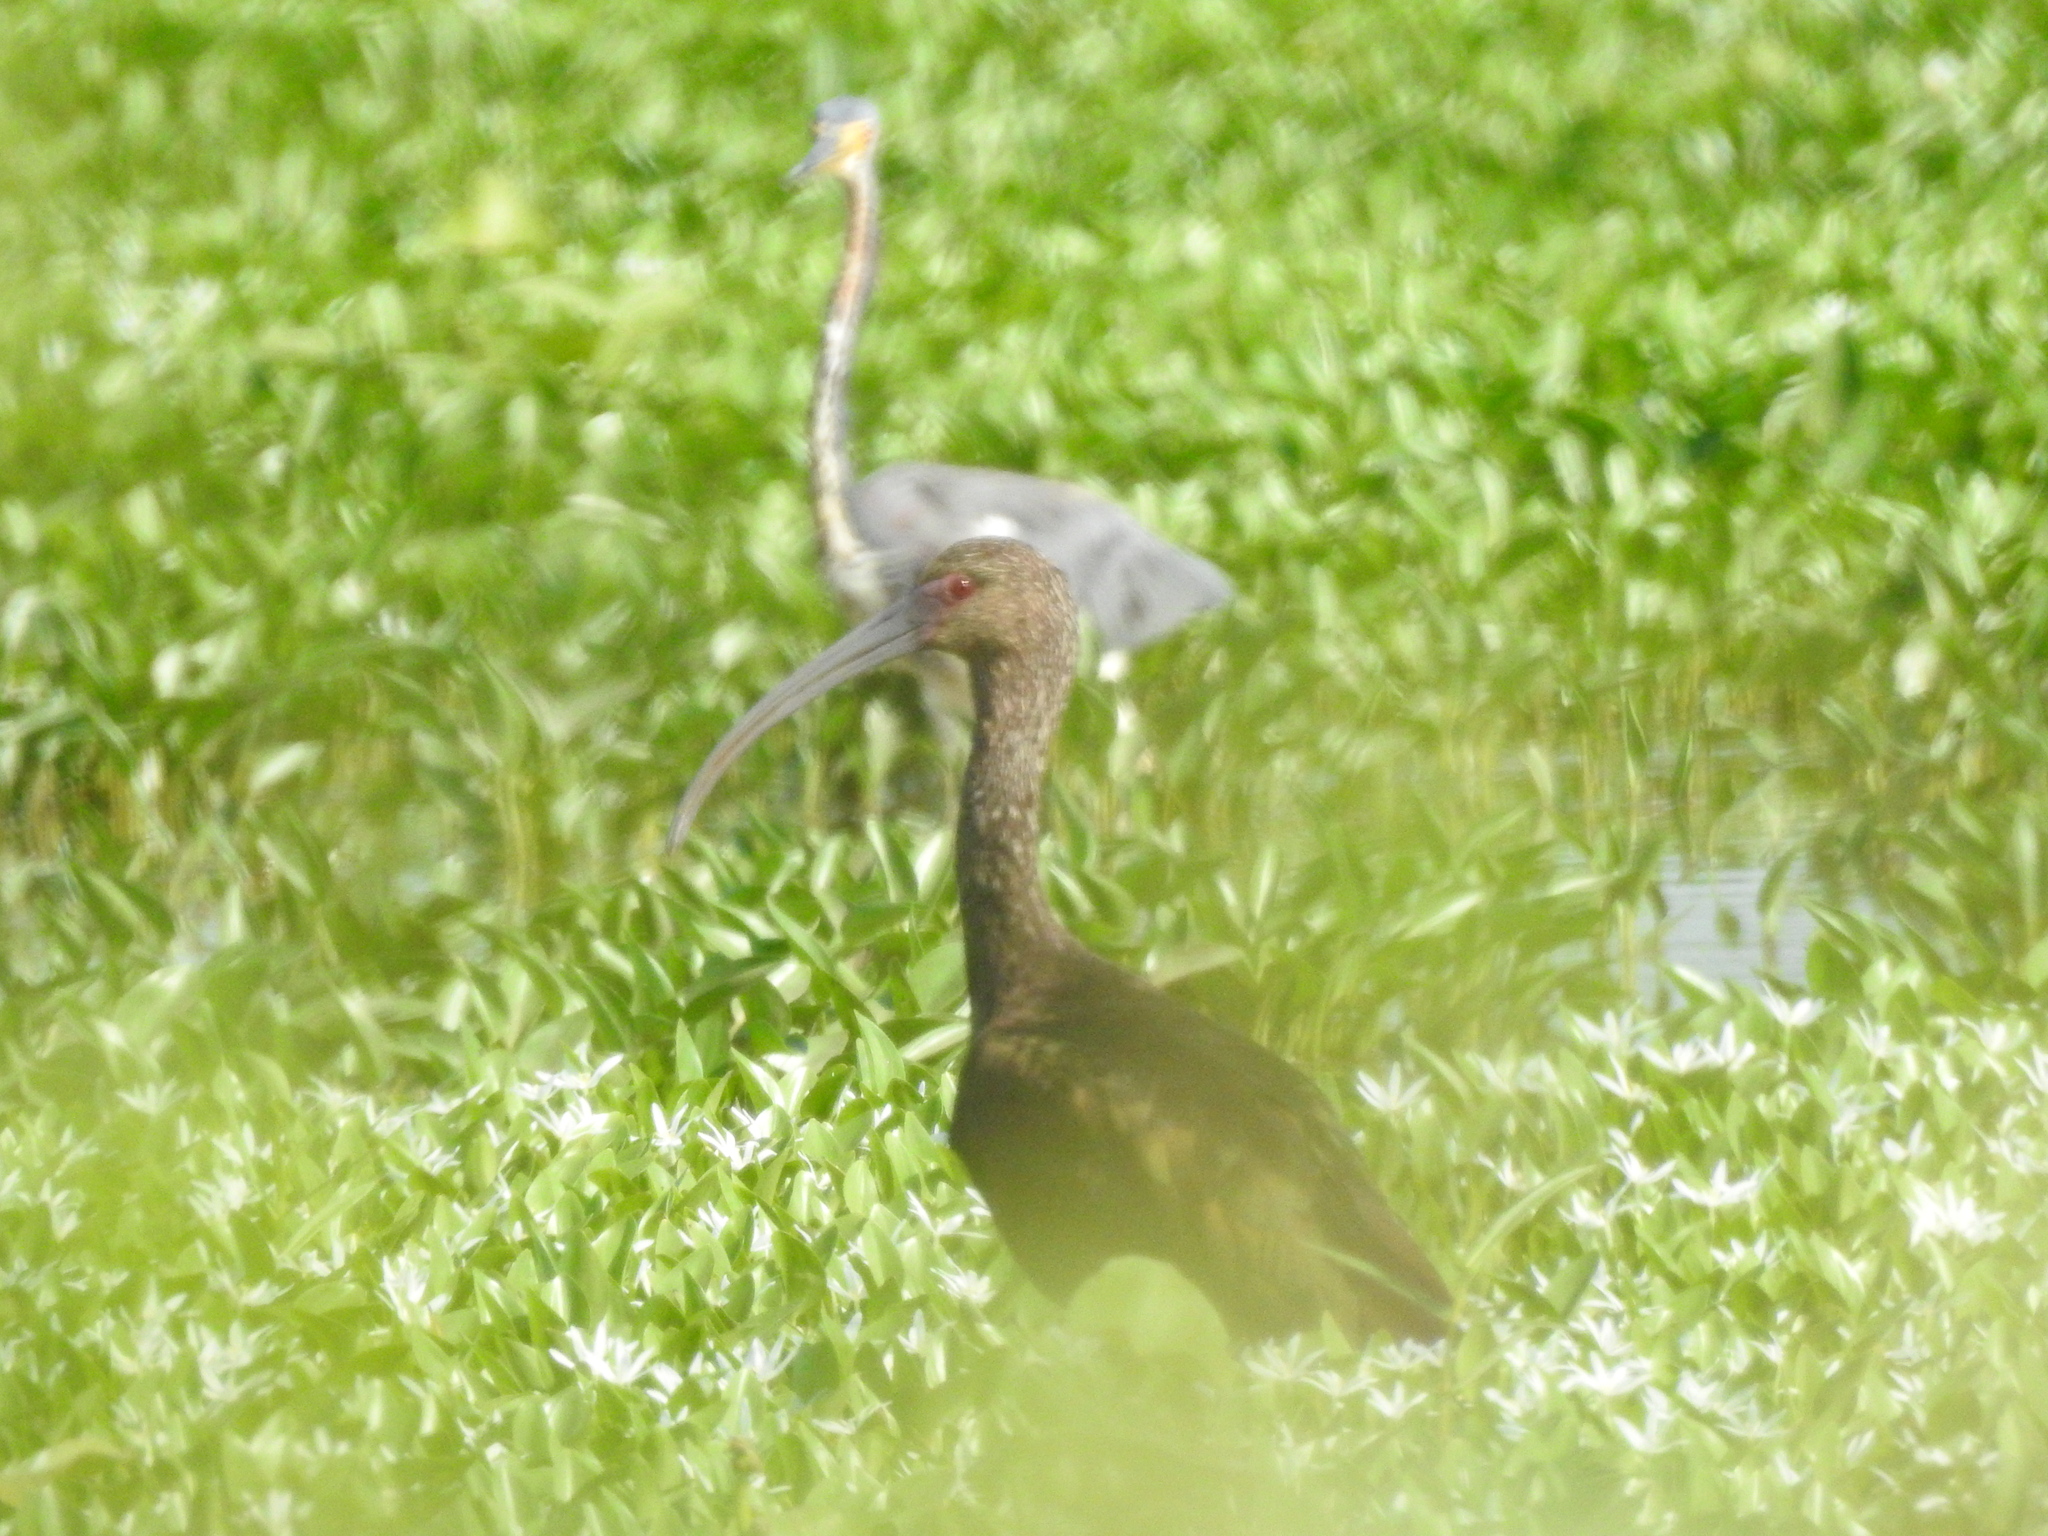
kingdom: Animalia
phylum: Chordata
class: Aves
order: Pelecaniformes
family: Threskiornithidae
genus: Plegadis
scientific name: Plegadis chihi
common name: White-faced ibis
